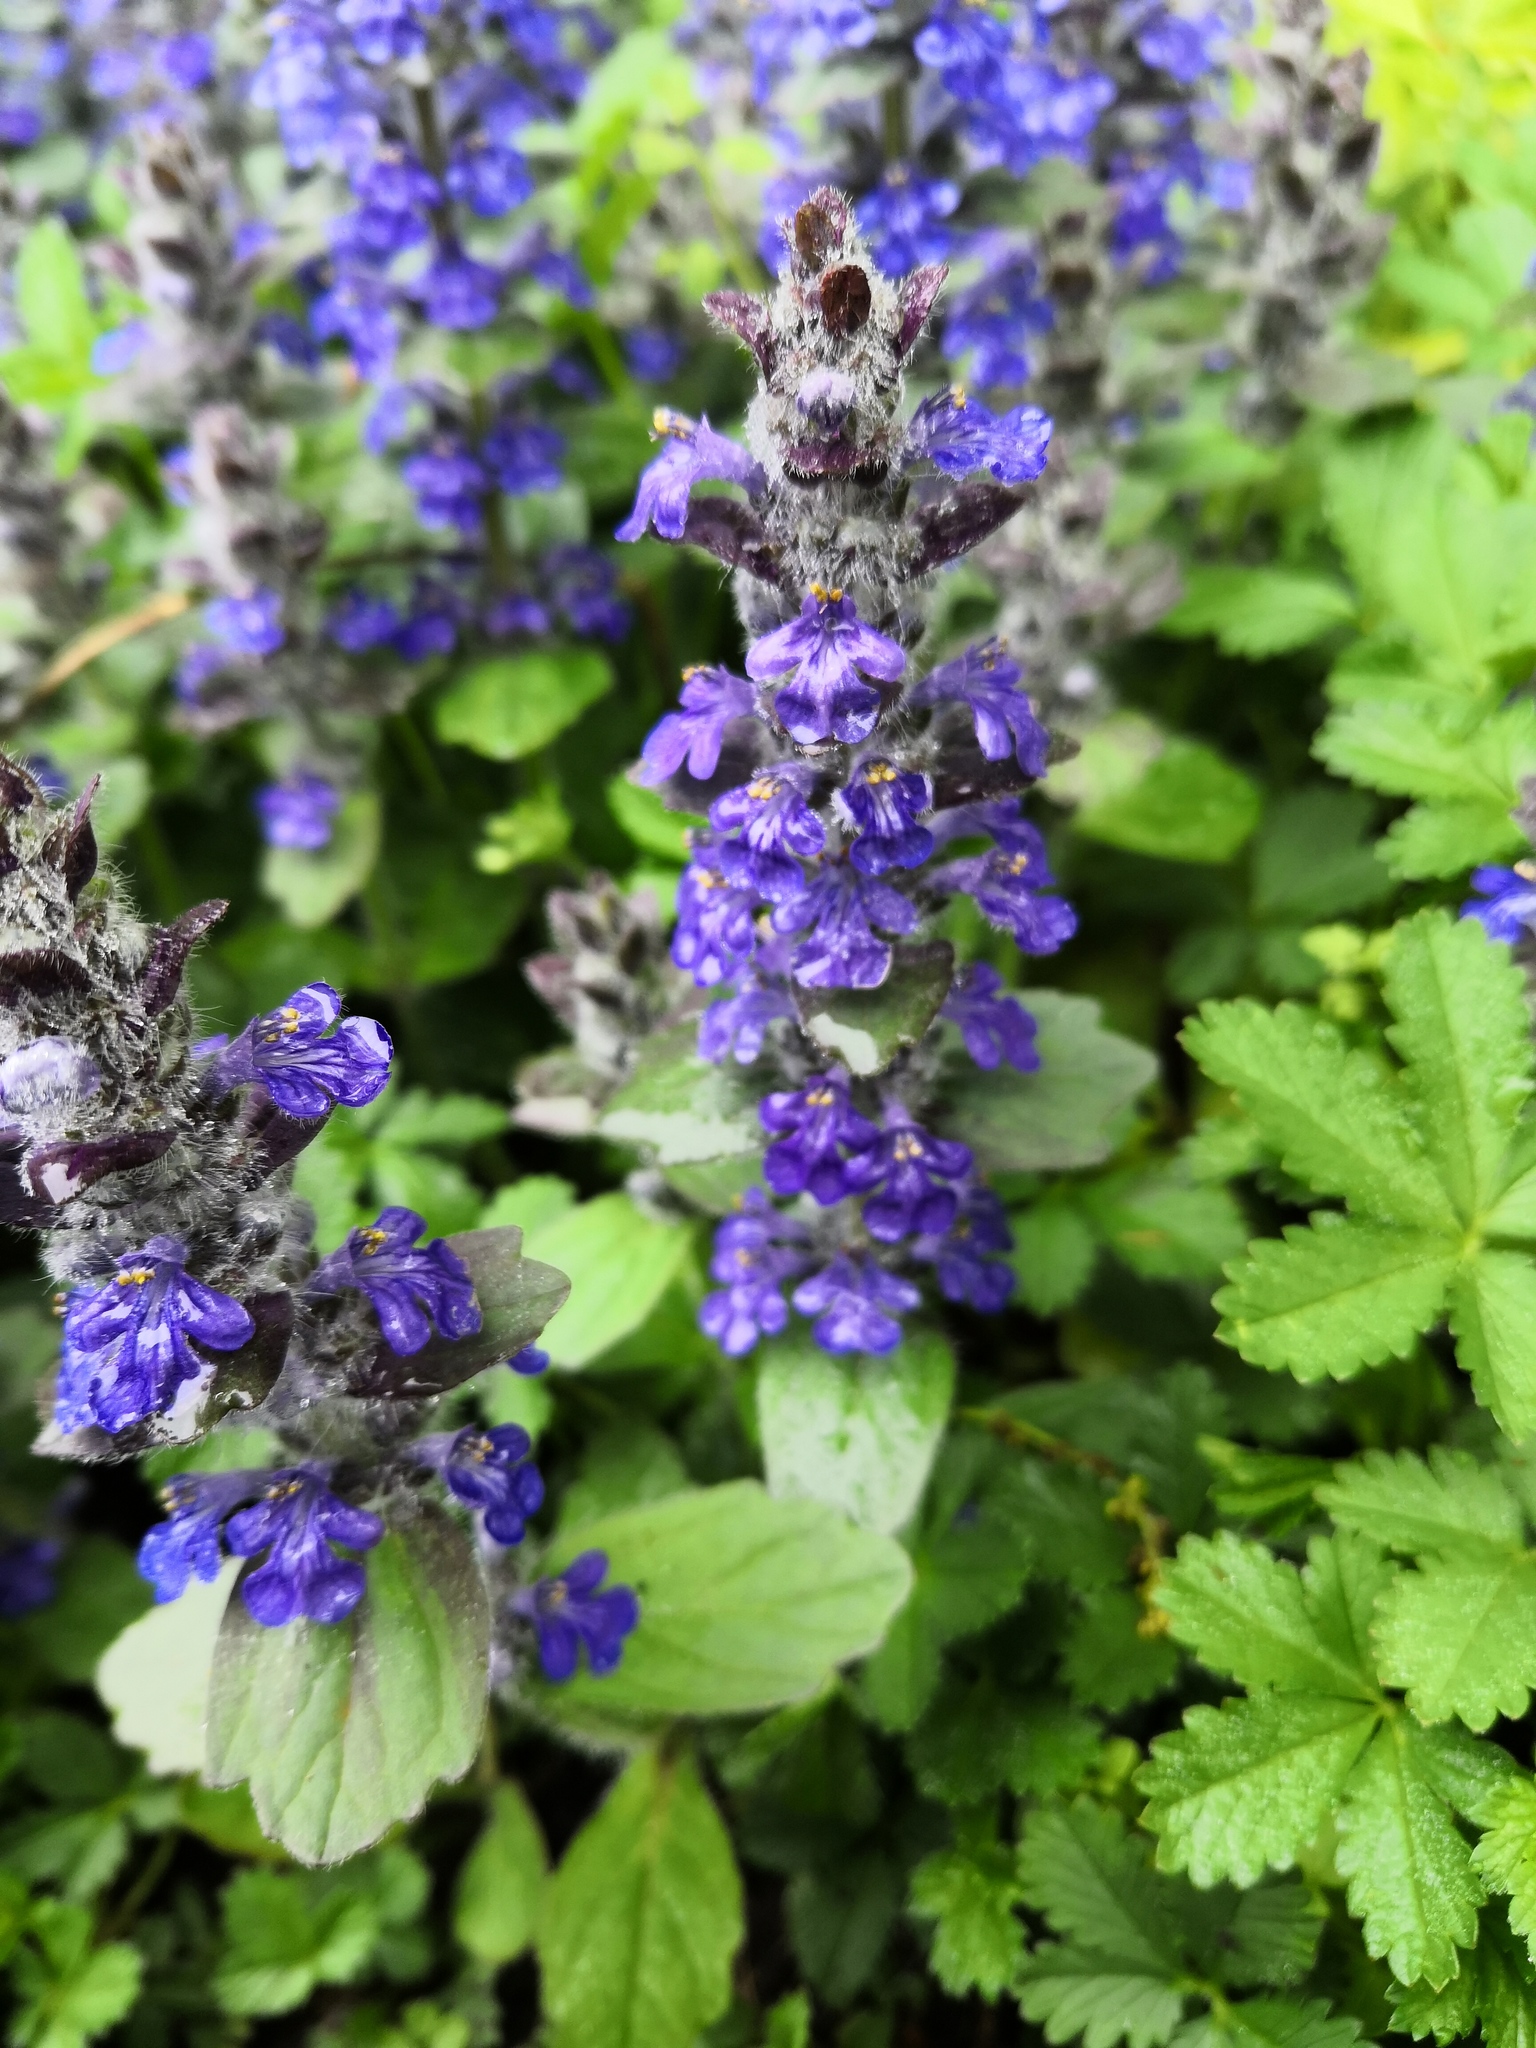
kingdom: Plantae
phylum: Tracheophyta
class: Magnoliopsida
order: Lamiales
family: Lamiaceae
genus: Ajuga
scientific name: Ajuga reptans
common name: Bugle
